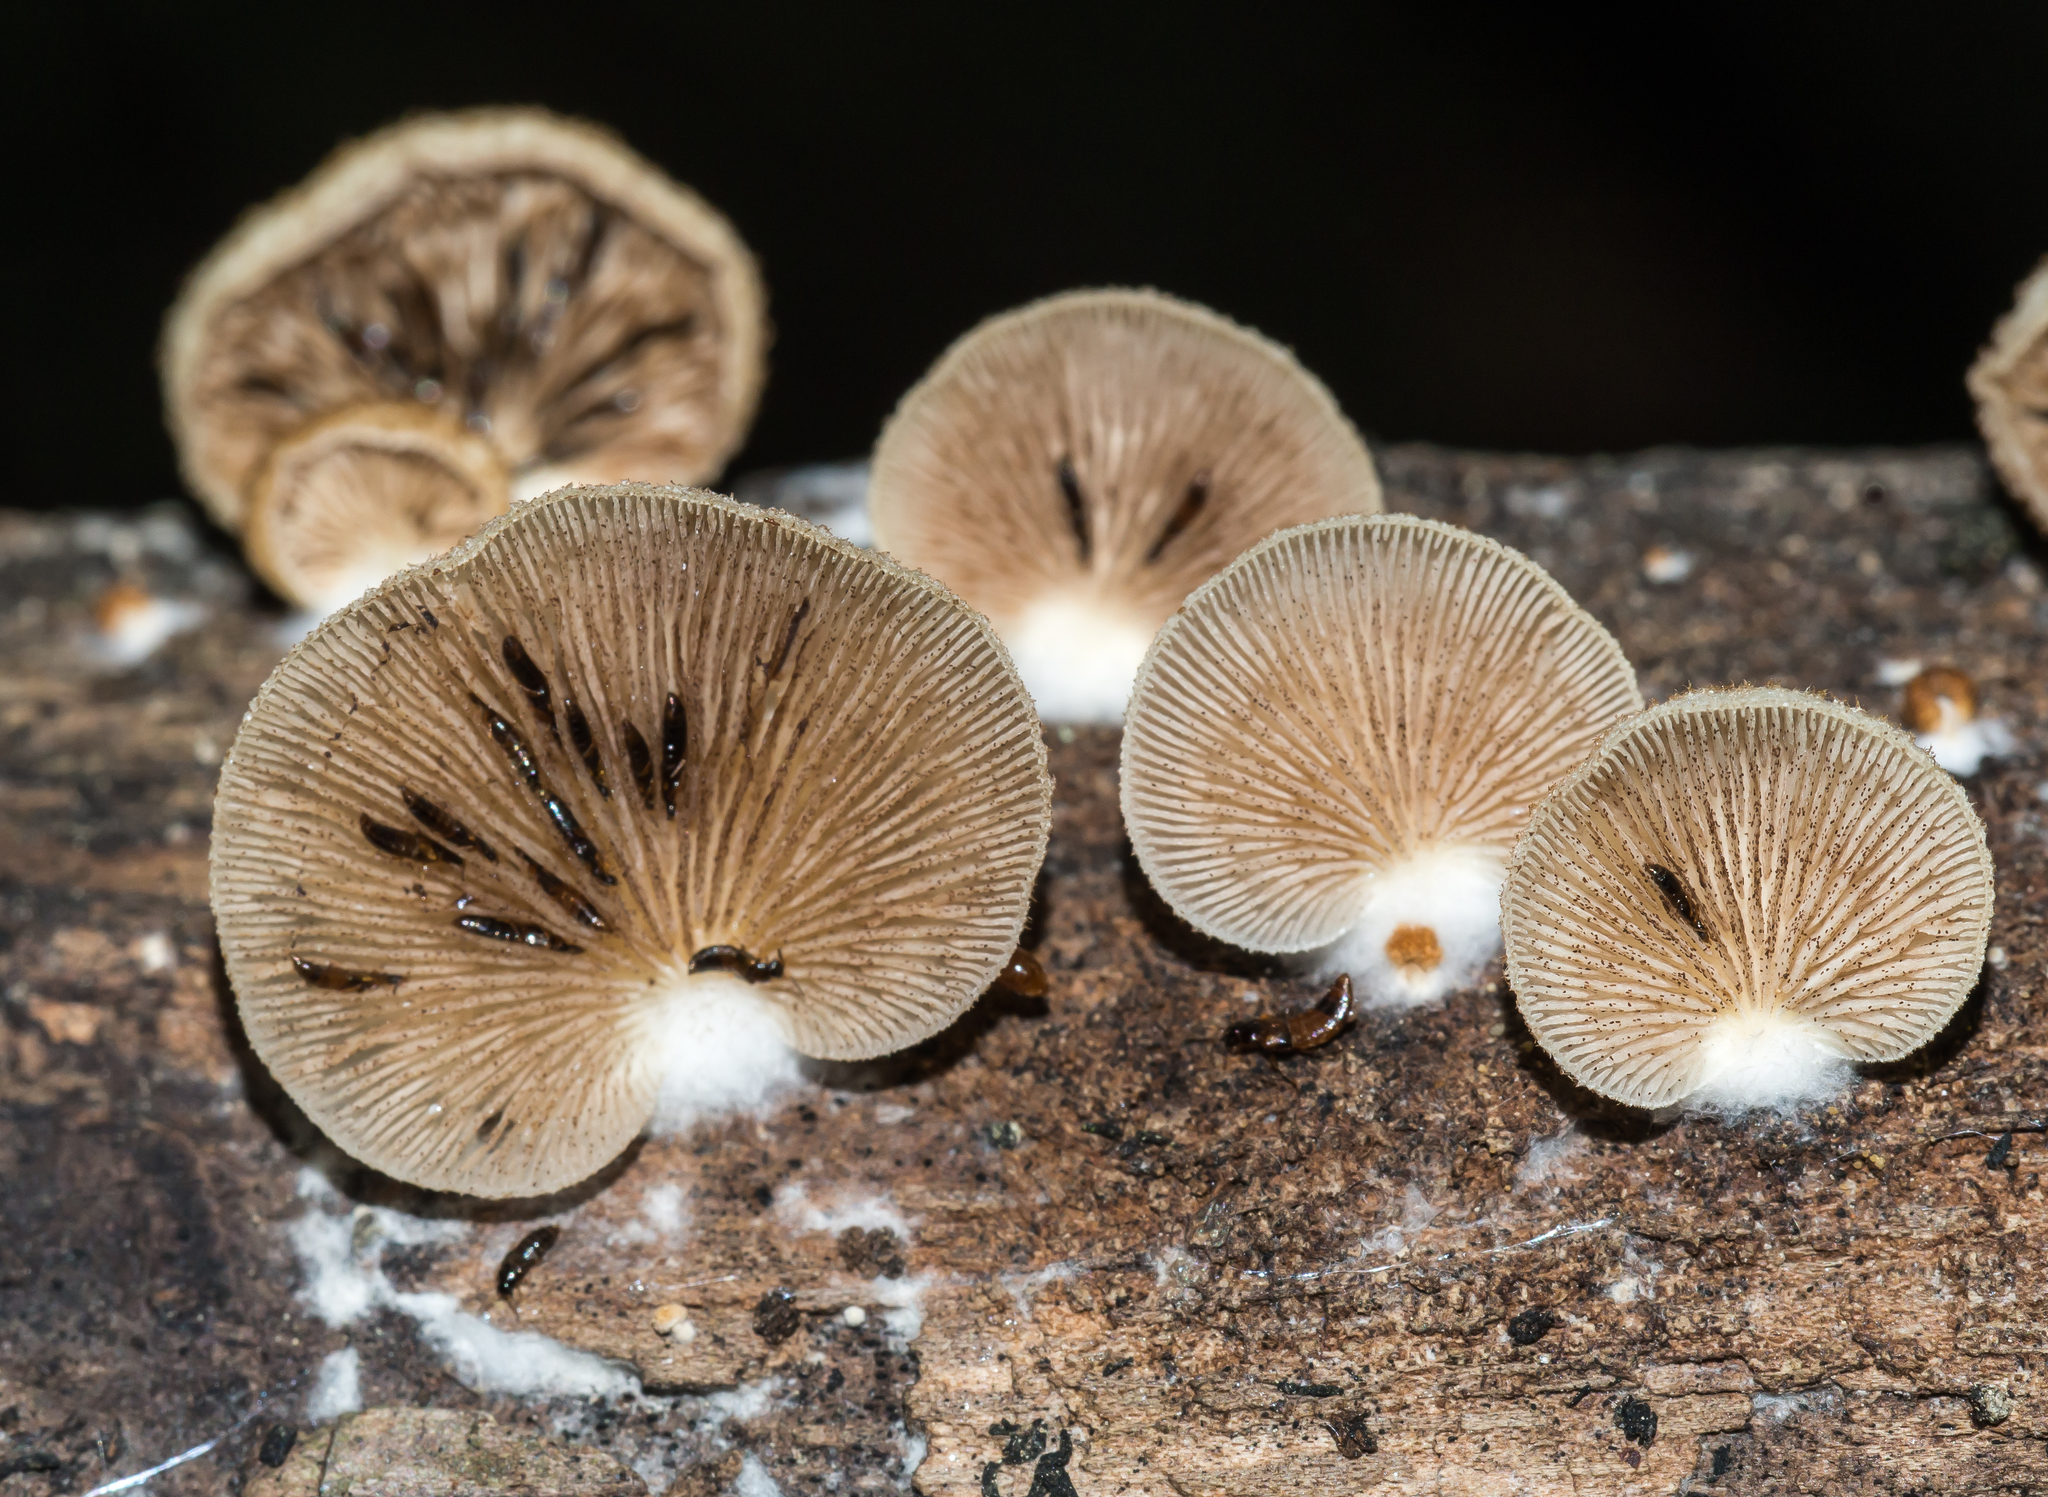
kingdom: Fungi
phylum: Basidiomycota
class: Agaricomycetes
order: Agaricales
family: Crepidotaceae
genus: Crepidotus
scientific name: Crepidotus calolepis
